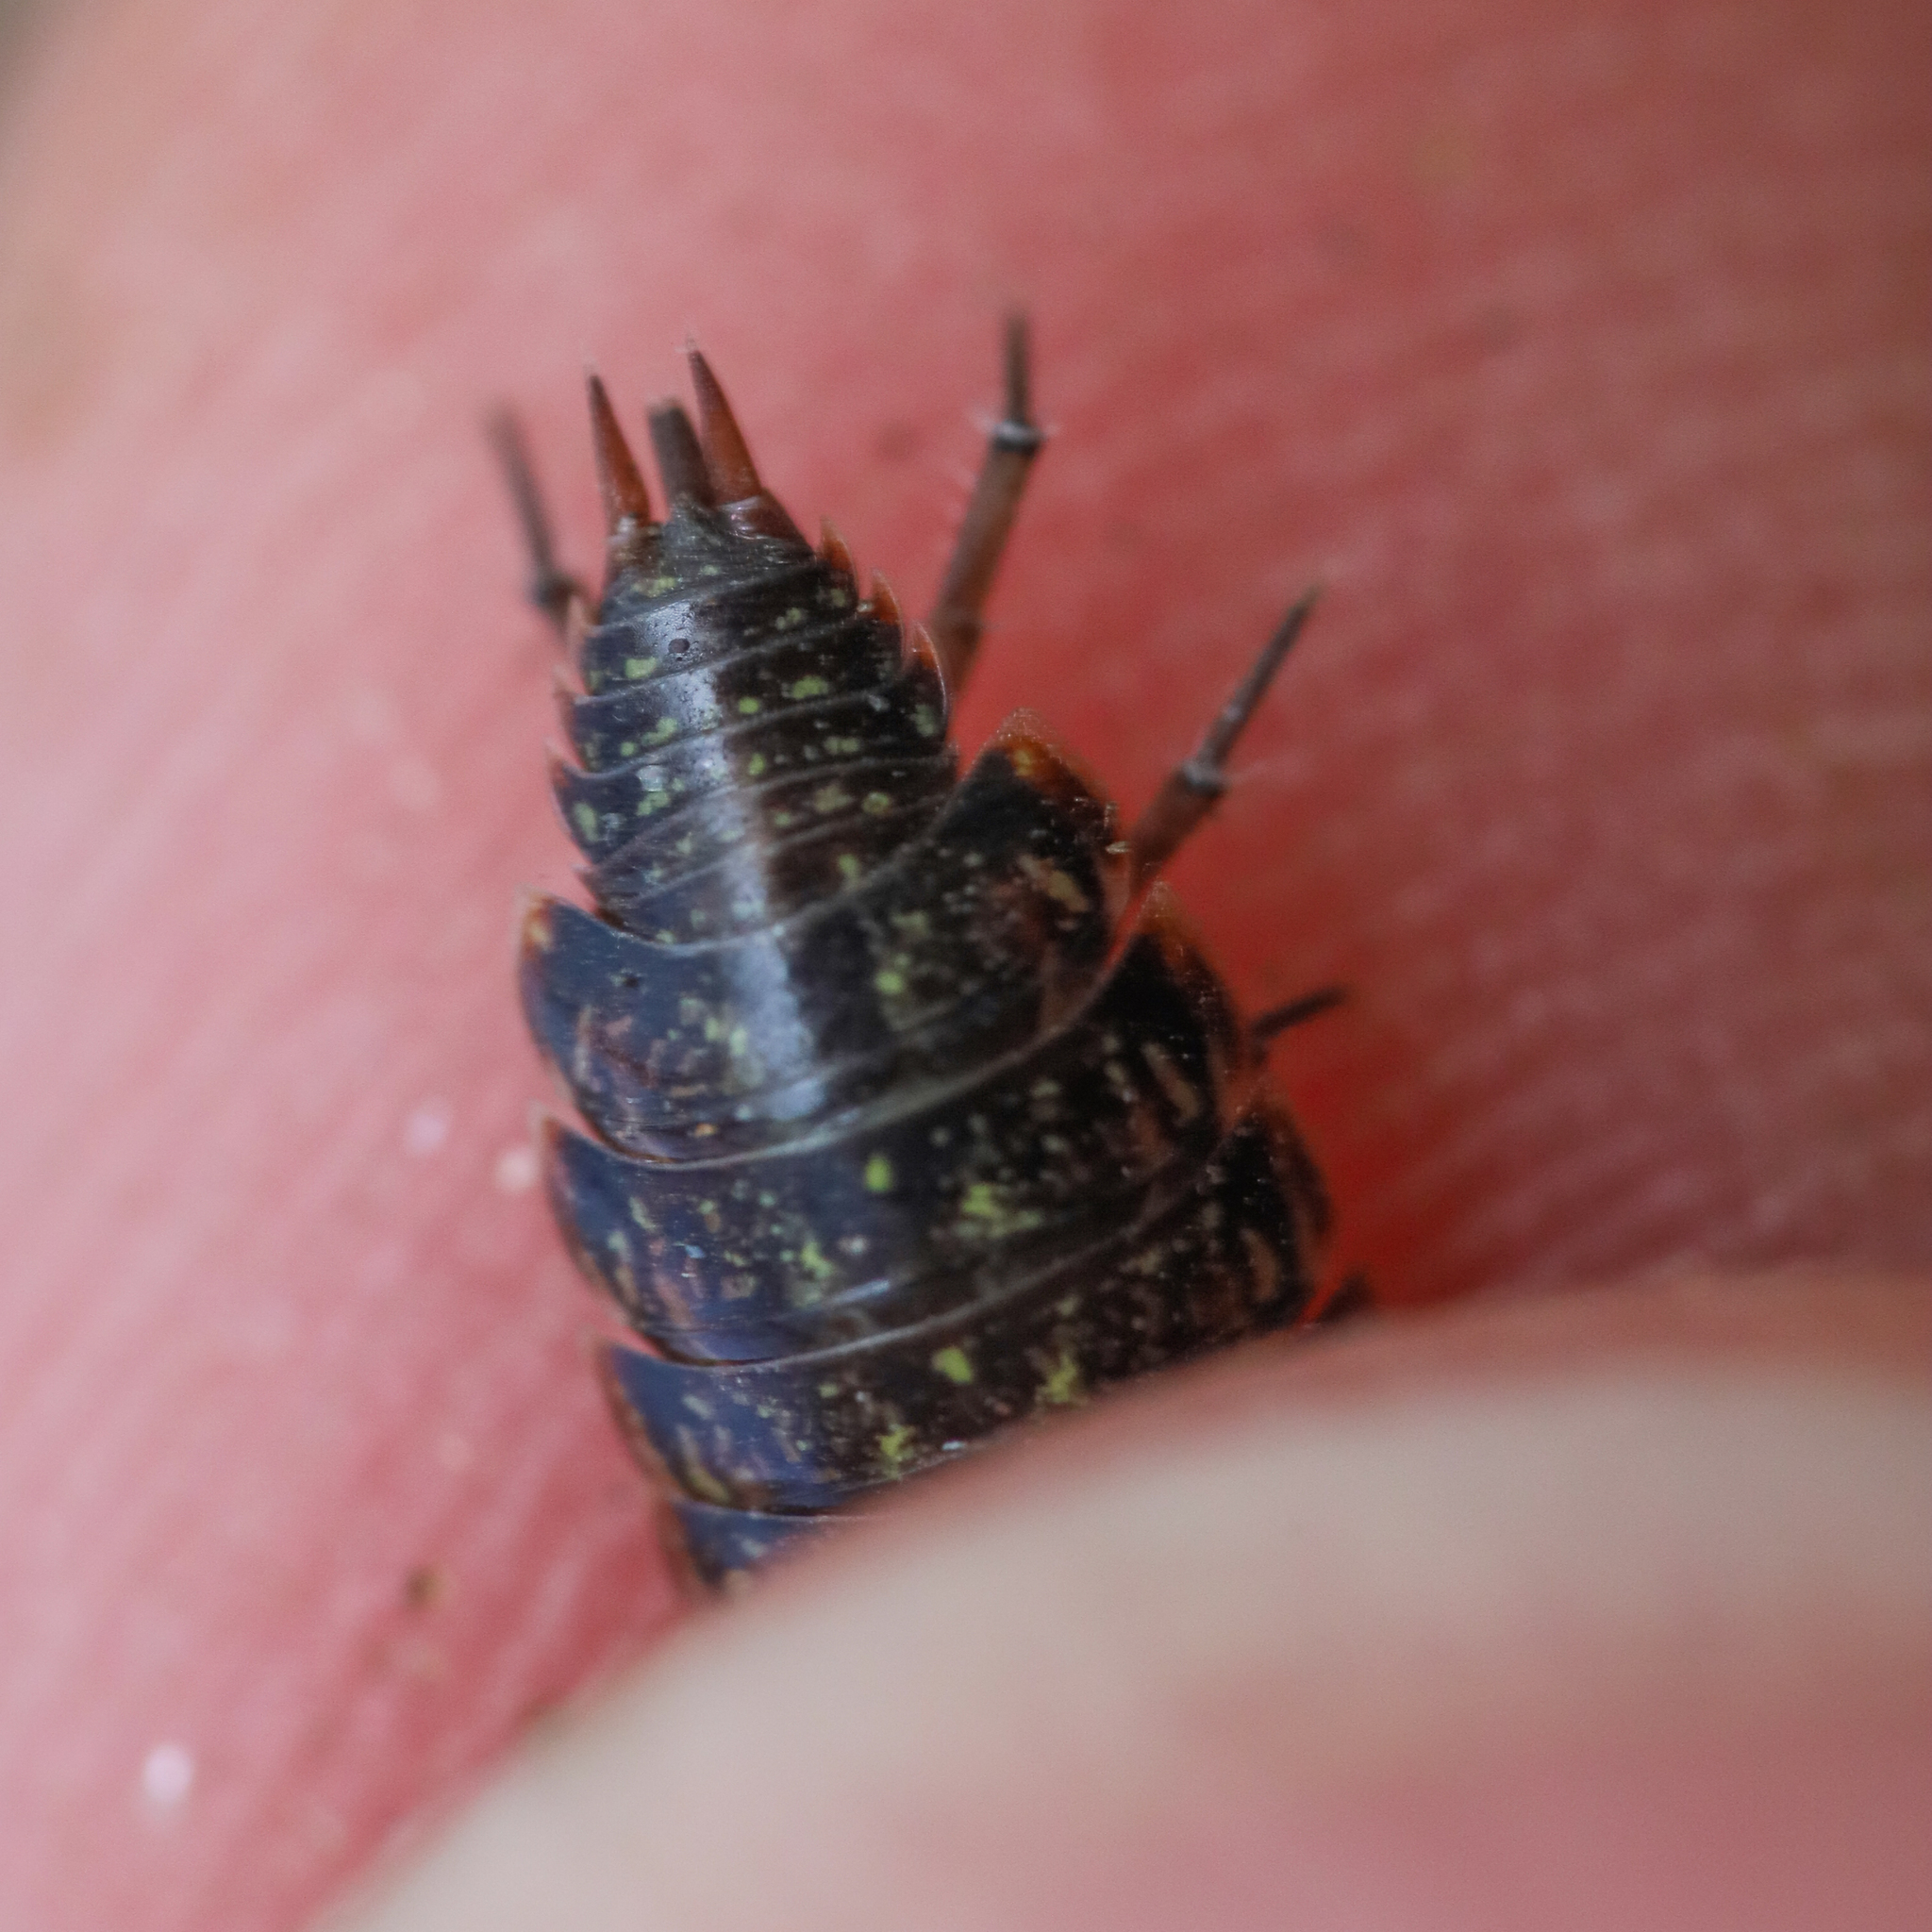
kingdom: Animalia
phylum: Arthropoda
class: Malacostraca
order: Isopoda
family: Philosciidae
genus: Philoscia
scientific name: Philoscia muscorum
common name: Common striped woodlouse
